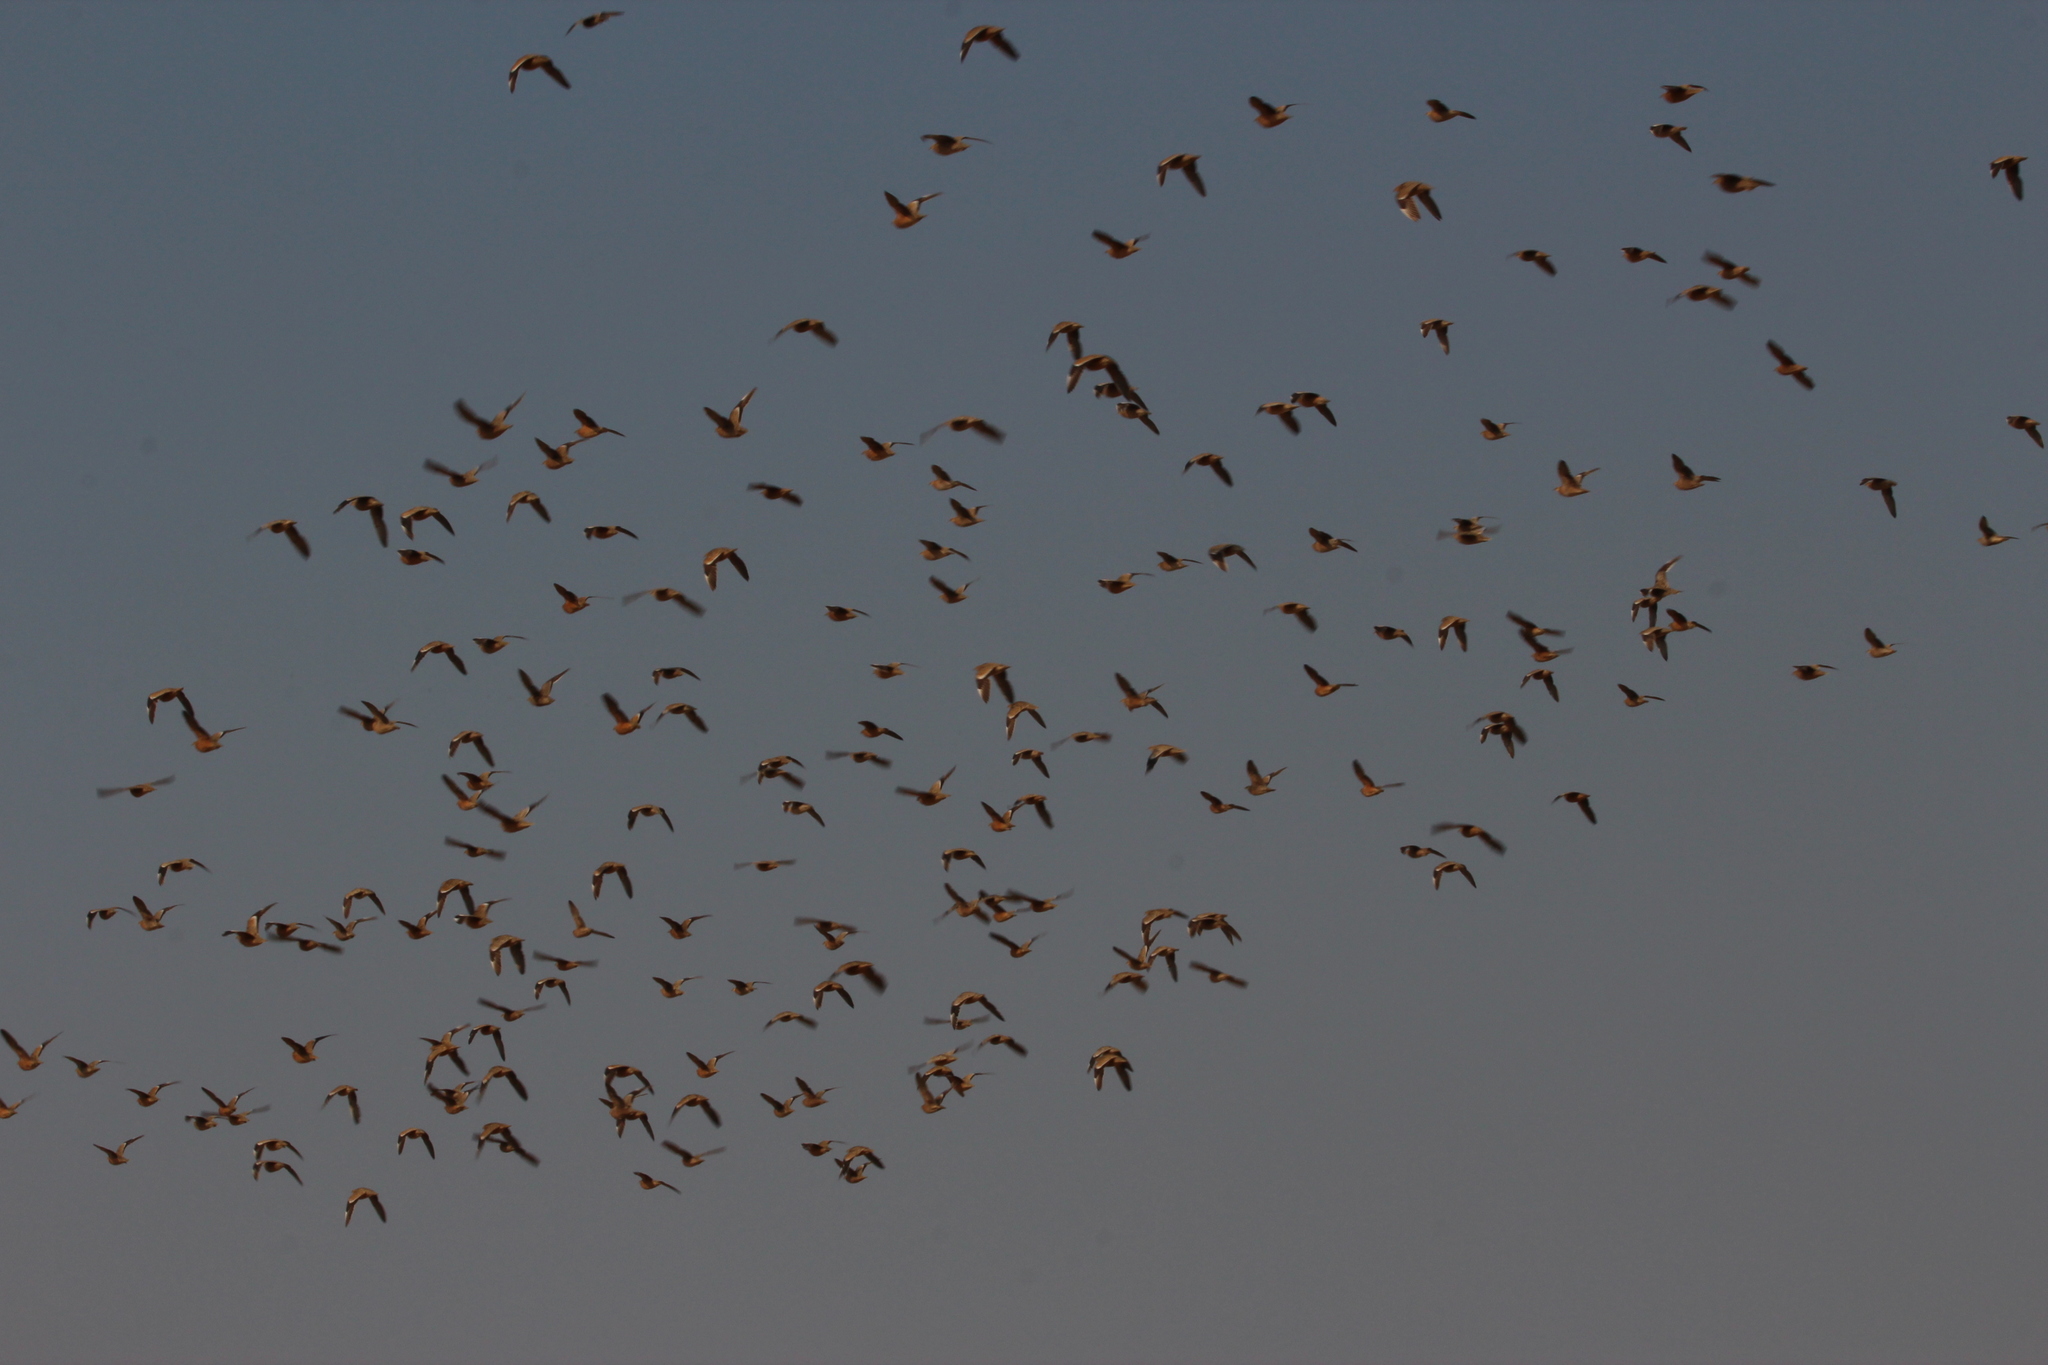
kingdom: Animalia
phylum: Chordata
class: Aves
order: Pteroclidiformes
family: Pteroclididae
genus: Pterocles
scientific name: Pterocles burchelli
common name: Burchell's sandgrouse
